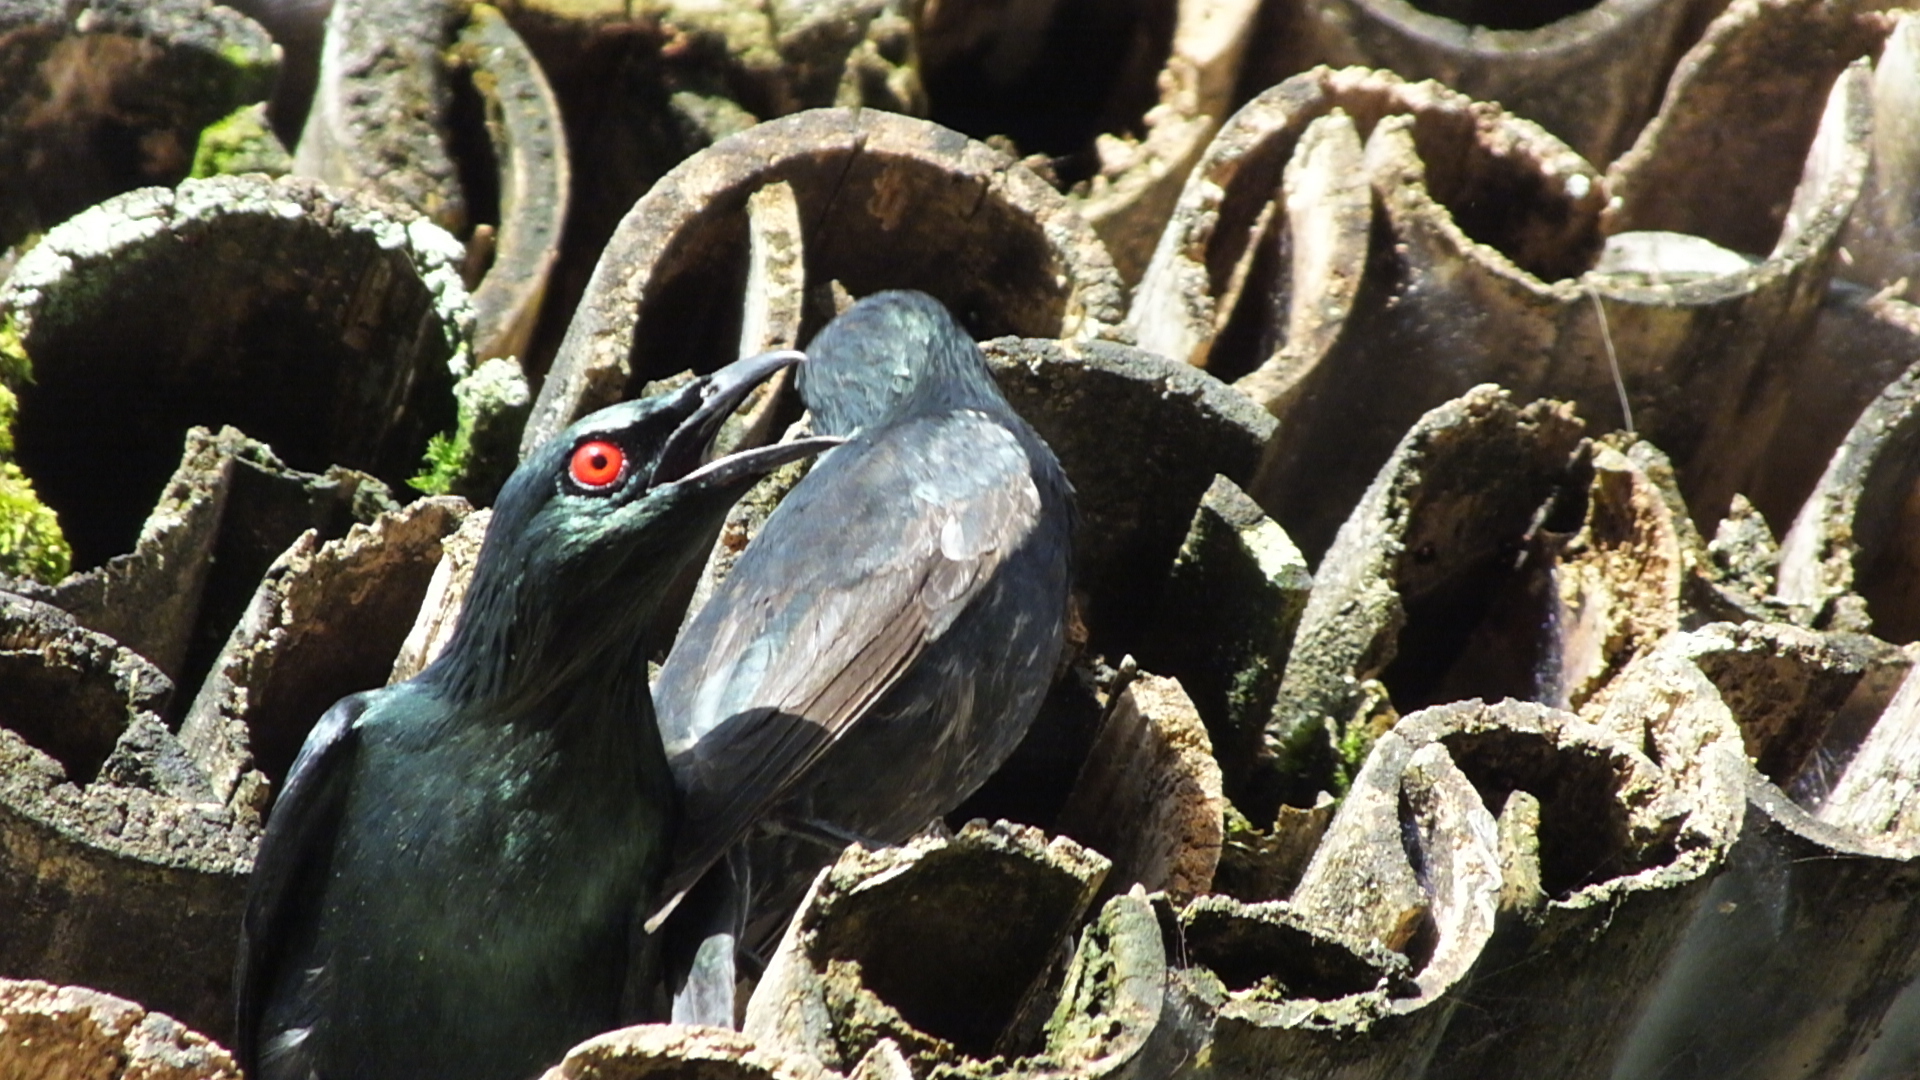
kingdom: Animalia
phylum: Chordata
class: Aves
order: Passeriformes
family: Sturnidae
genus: Aplonis
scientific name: Aplonis panayensis
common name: Asian glossy starling
